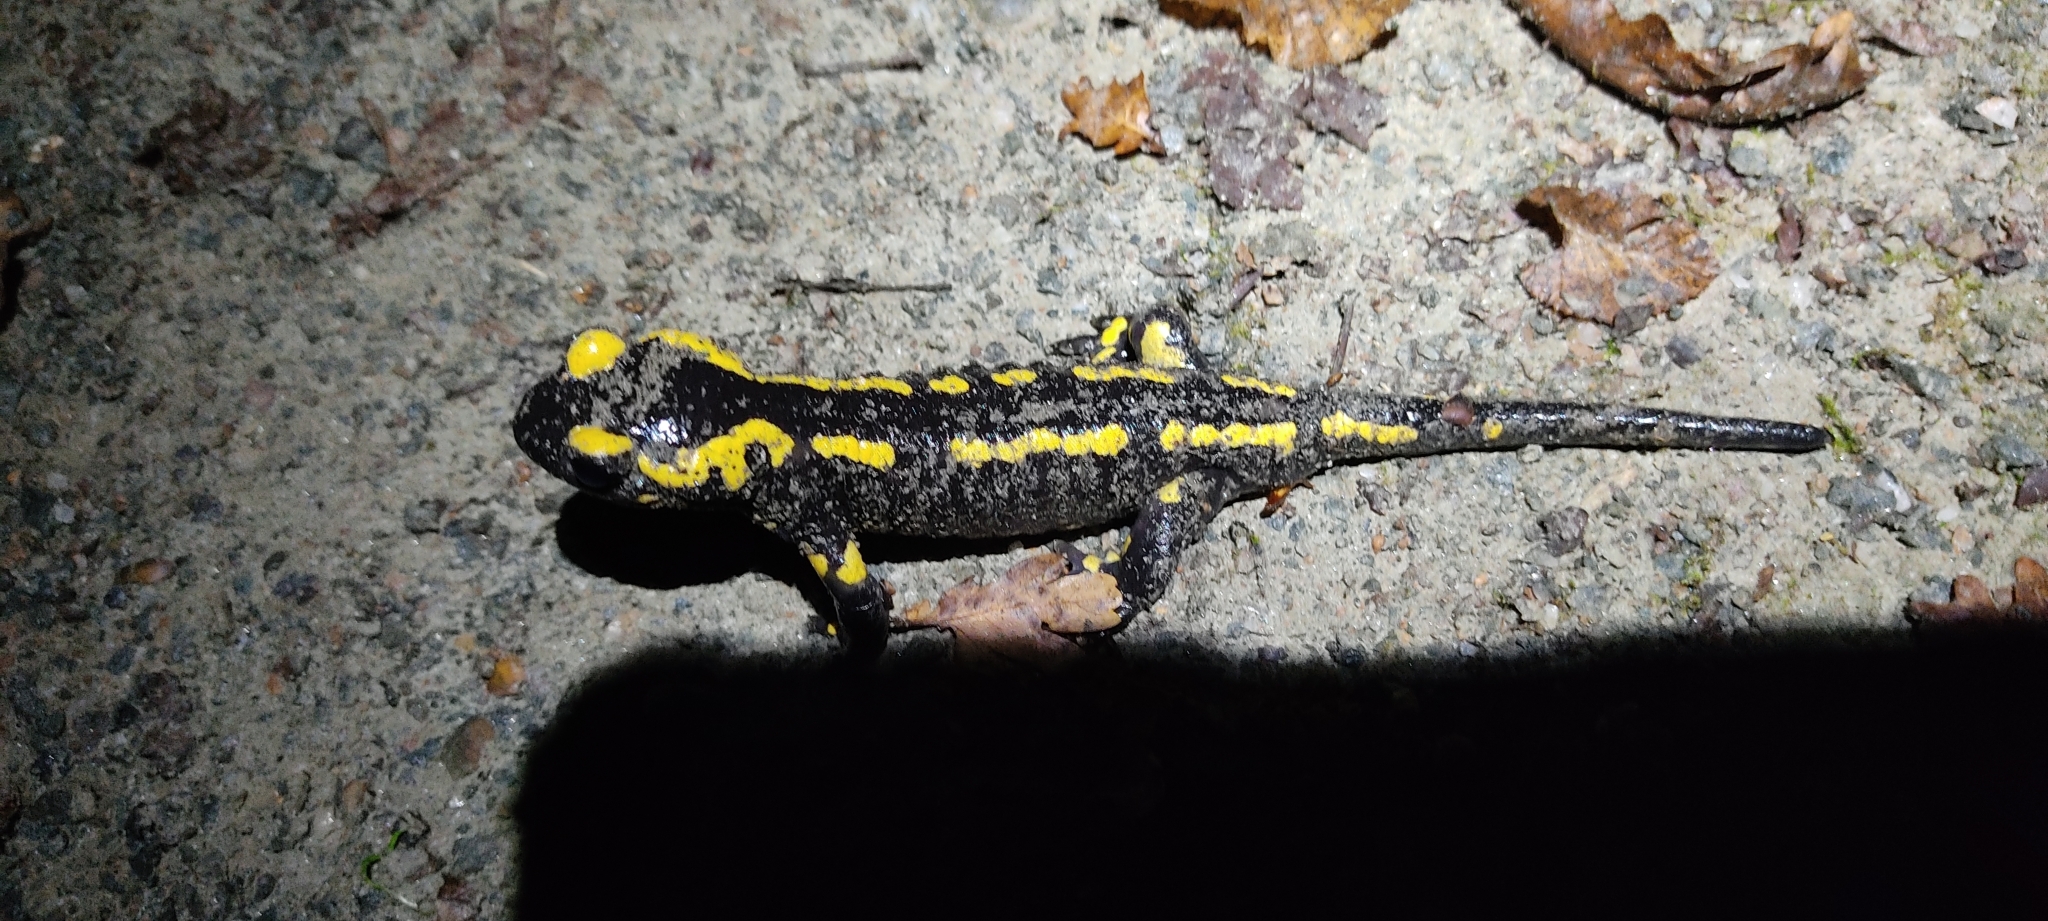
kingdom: Animalia
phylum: Chordata
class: Amphibia
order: Caudata
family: Salamandridae
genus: Salamandra
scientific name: Salamandra salamandra
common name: Fire salamander
